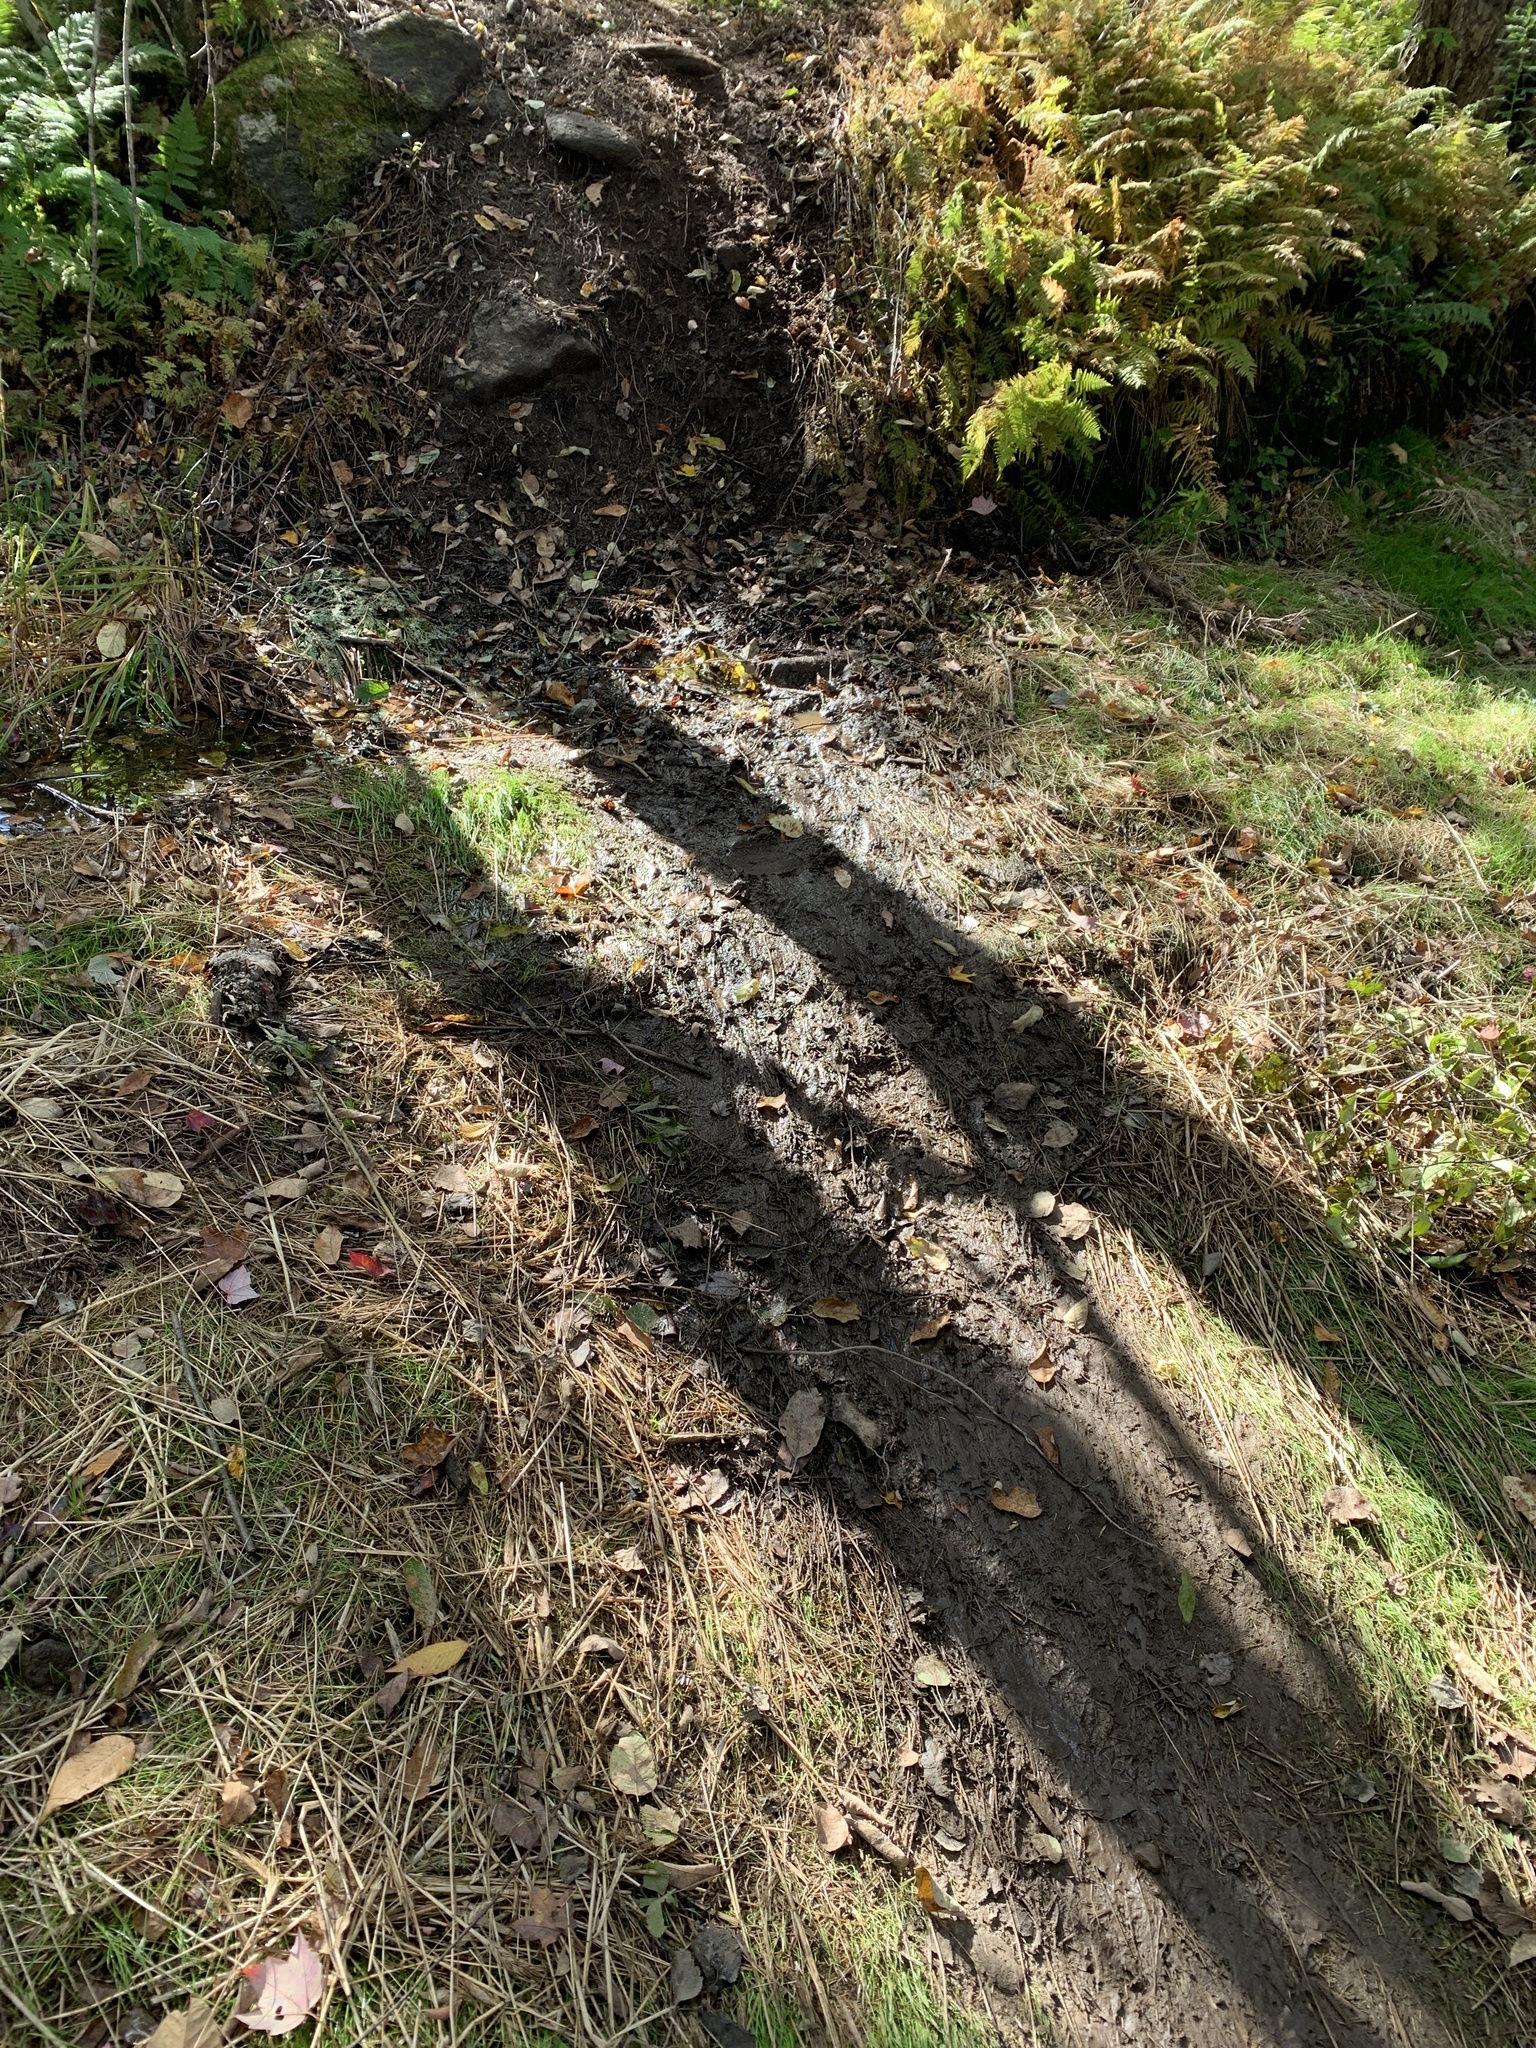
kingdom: Animalia
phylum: Chordata
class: Mammalia
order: Rodentia
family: Castoridae
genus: Castor
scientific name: Castor canadensis
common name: American beaver
